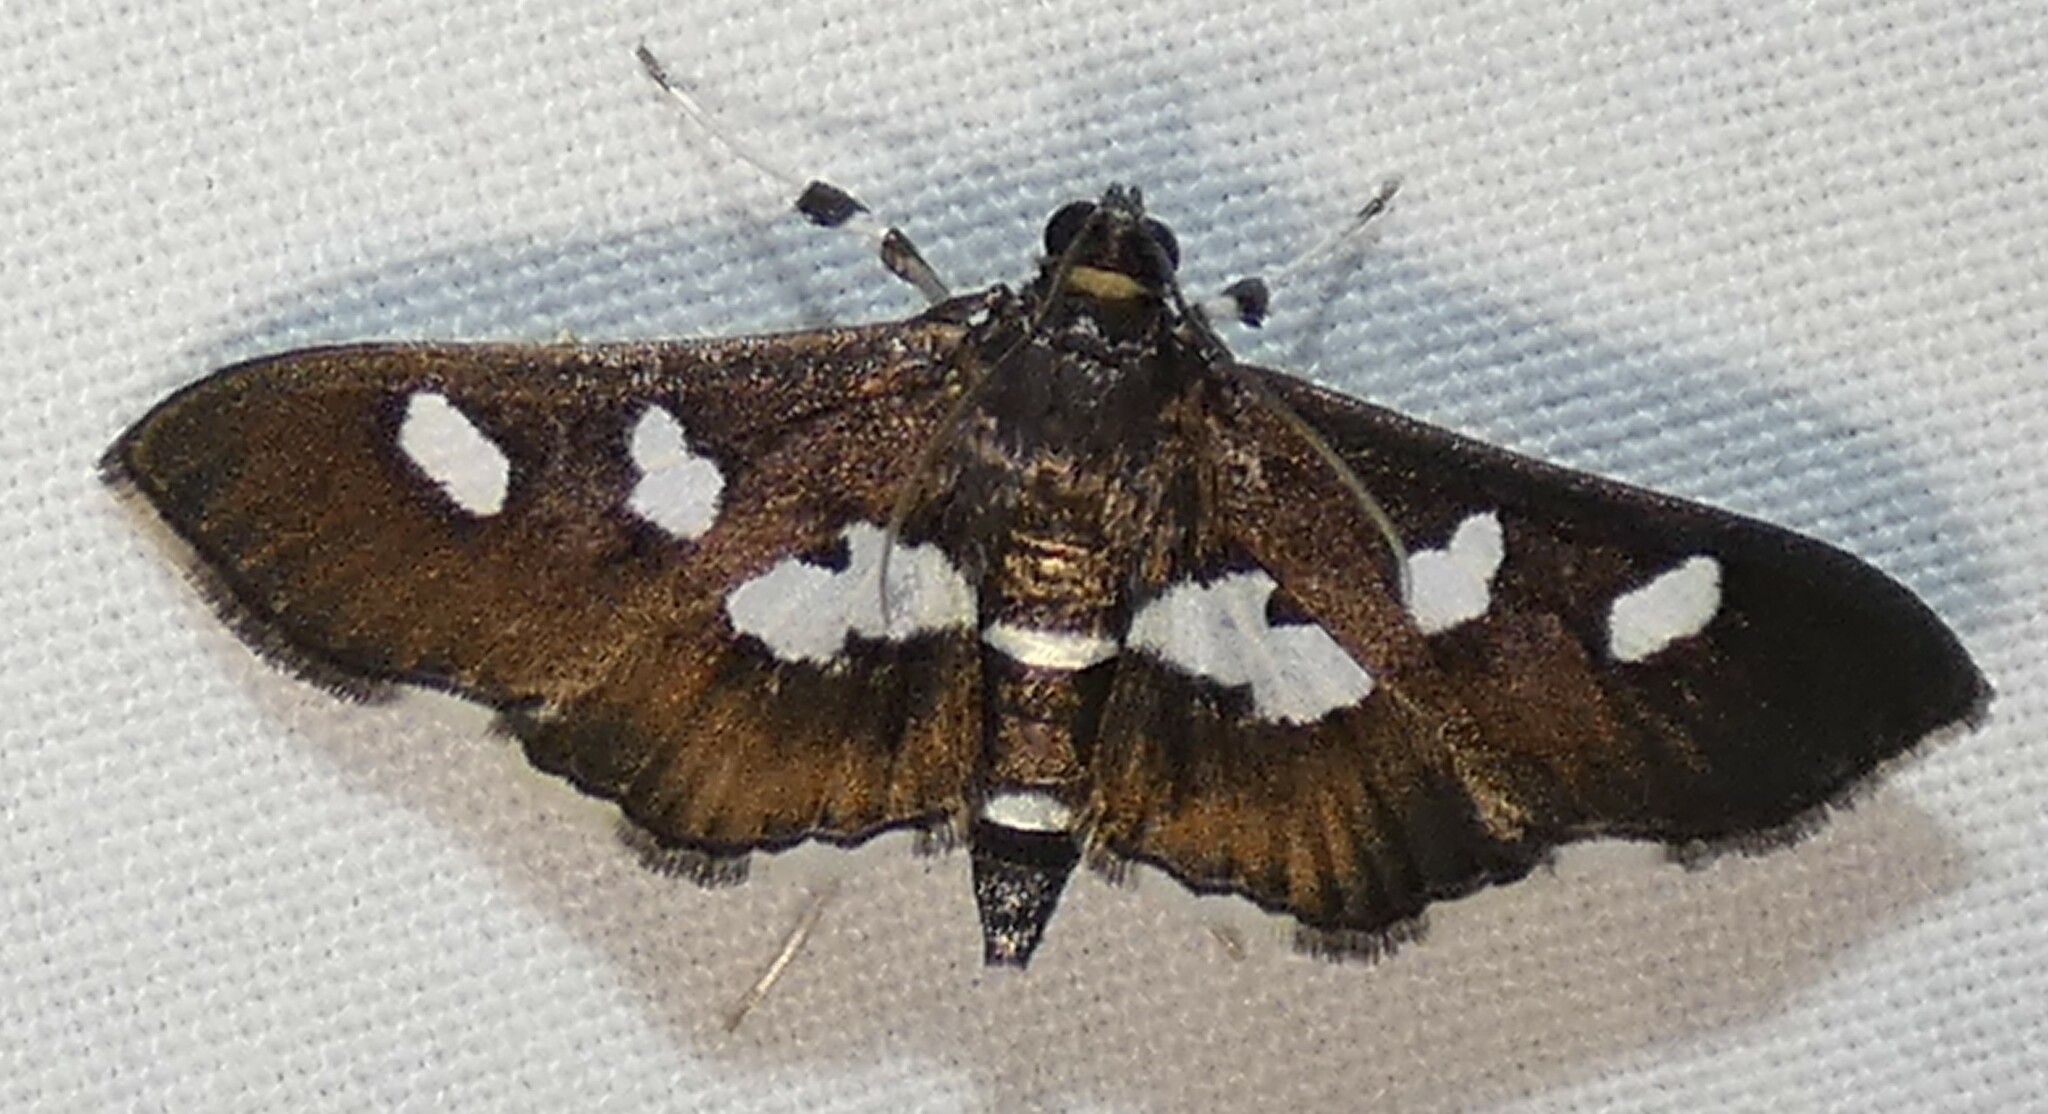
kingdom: Animalia
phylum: Arthropoda
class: Insecta
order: Lepidoptera
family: Crambidae
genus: Desmia
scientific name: Desmia funeralis
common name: Grape leaf folder moth
